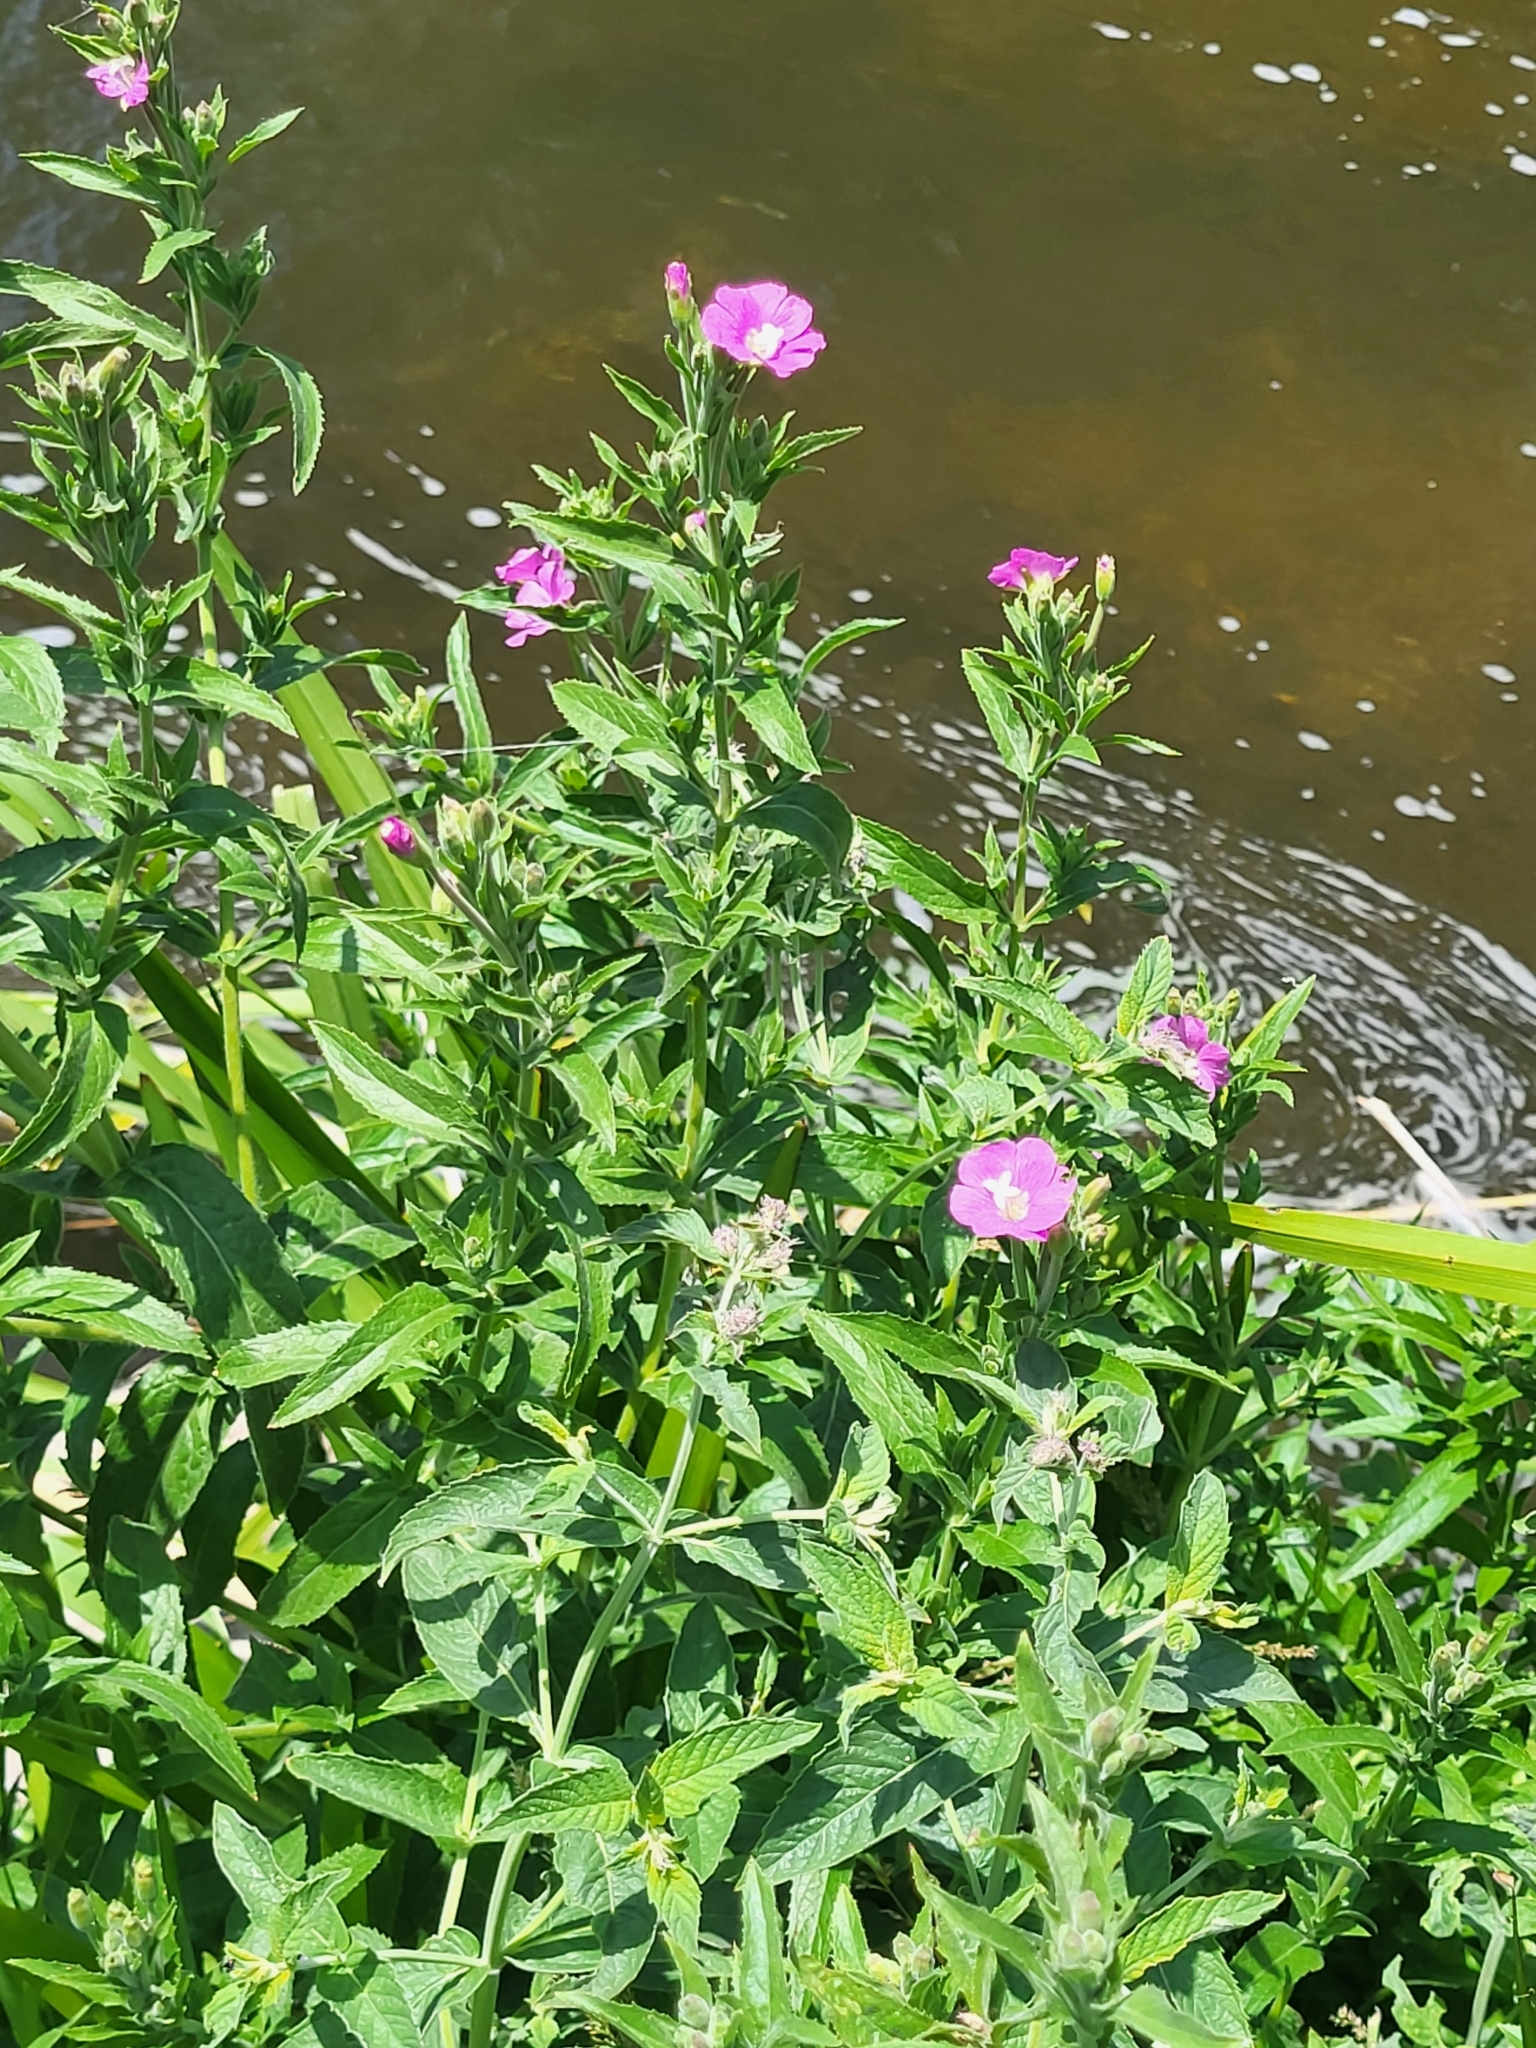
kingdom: Plantae
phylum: Tracheophyta
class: Magnoliopsida
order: Myrtales
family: Onagraceae
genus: Epilobium
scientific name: Epilobium hirsutum
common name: Great willowherb
